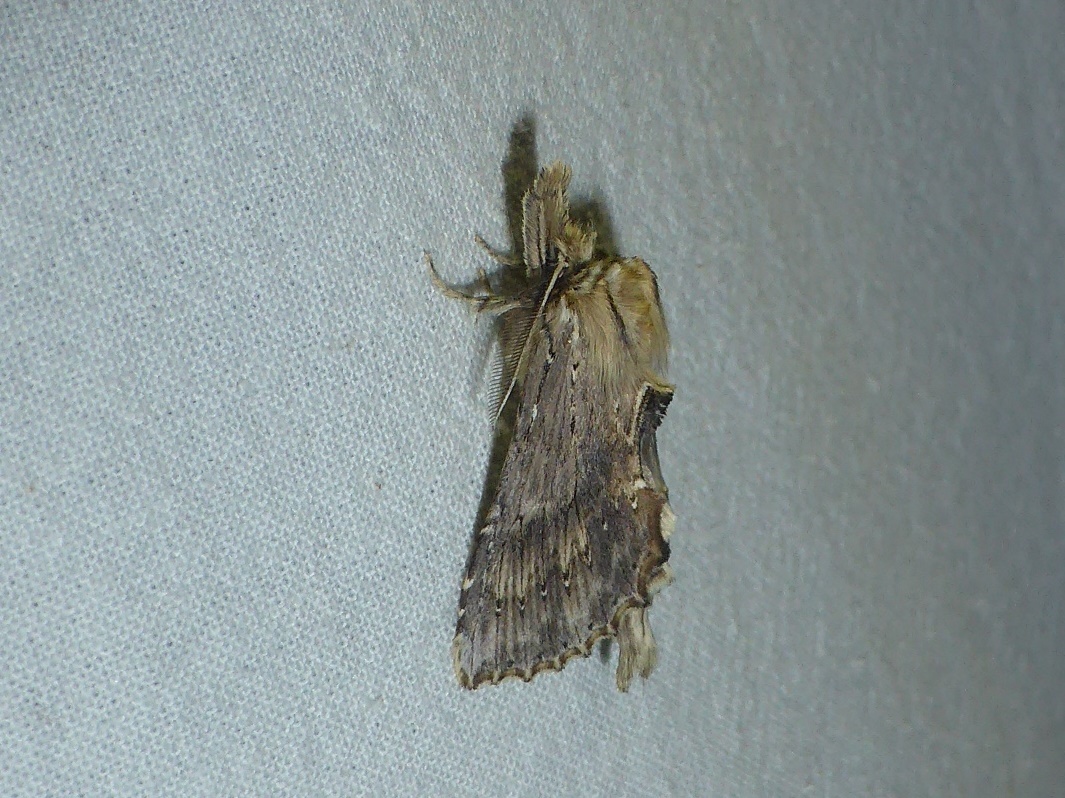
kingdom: Animalia
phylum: Arthropoda
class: Insecta
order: Lepidoptera
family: Notodontidae
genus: Pterostoma
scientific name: Pterostoma palpina
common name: Pale prominent
